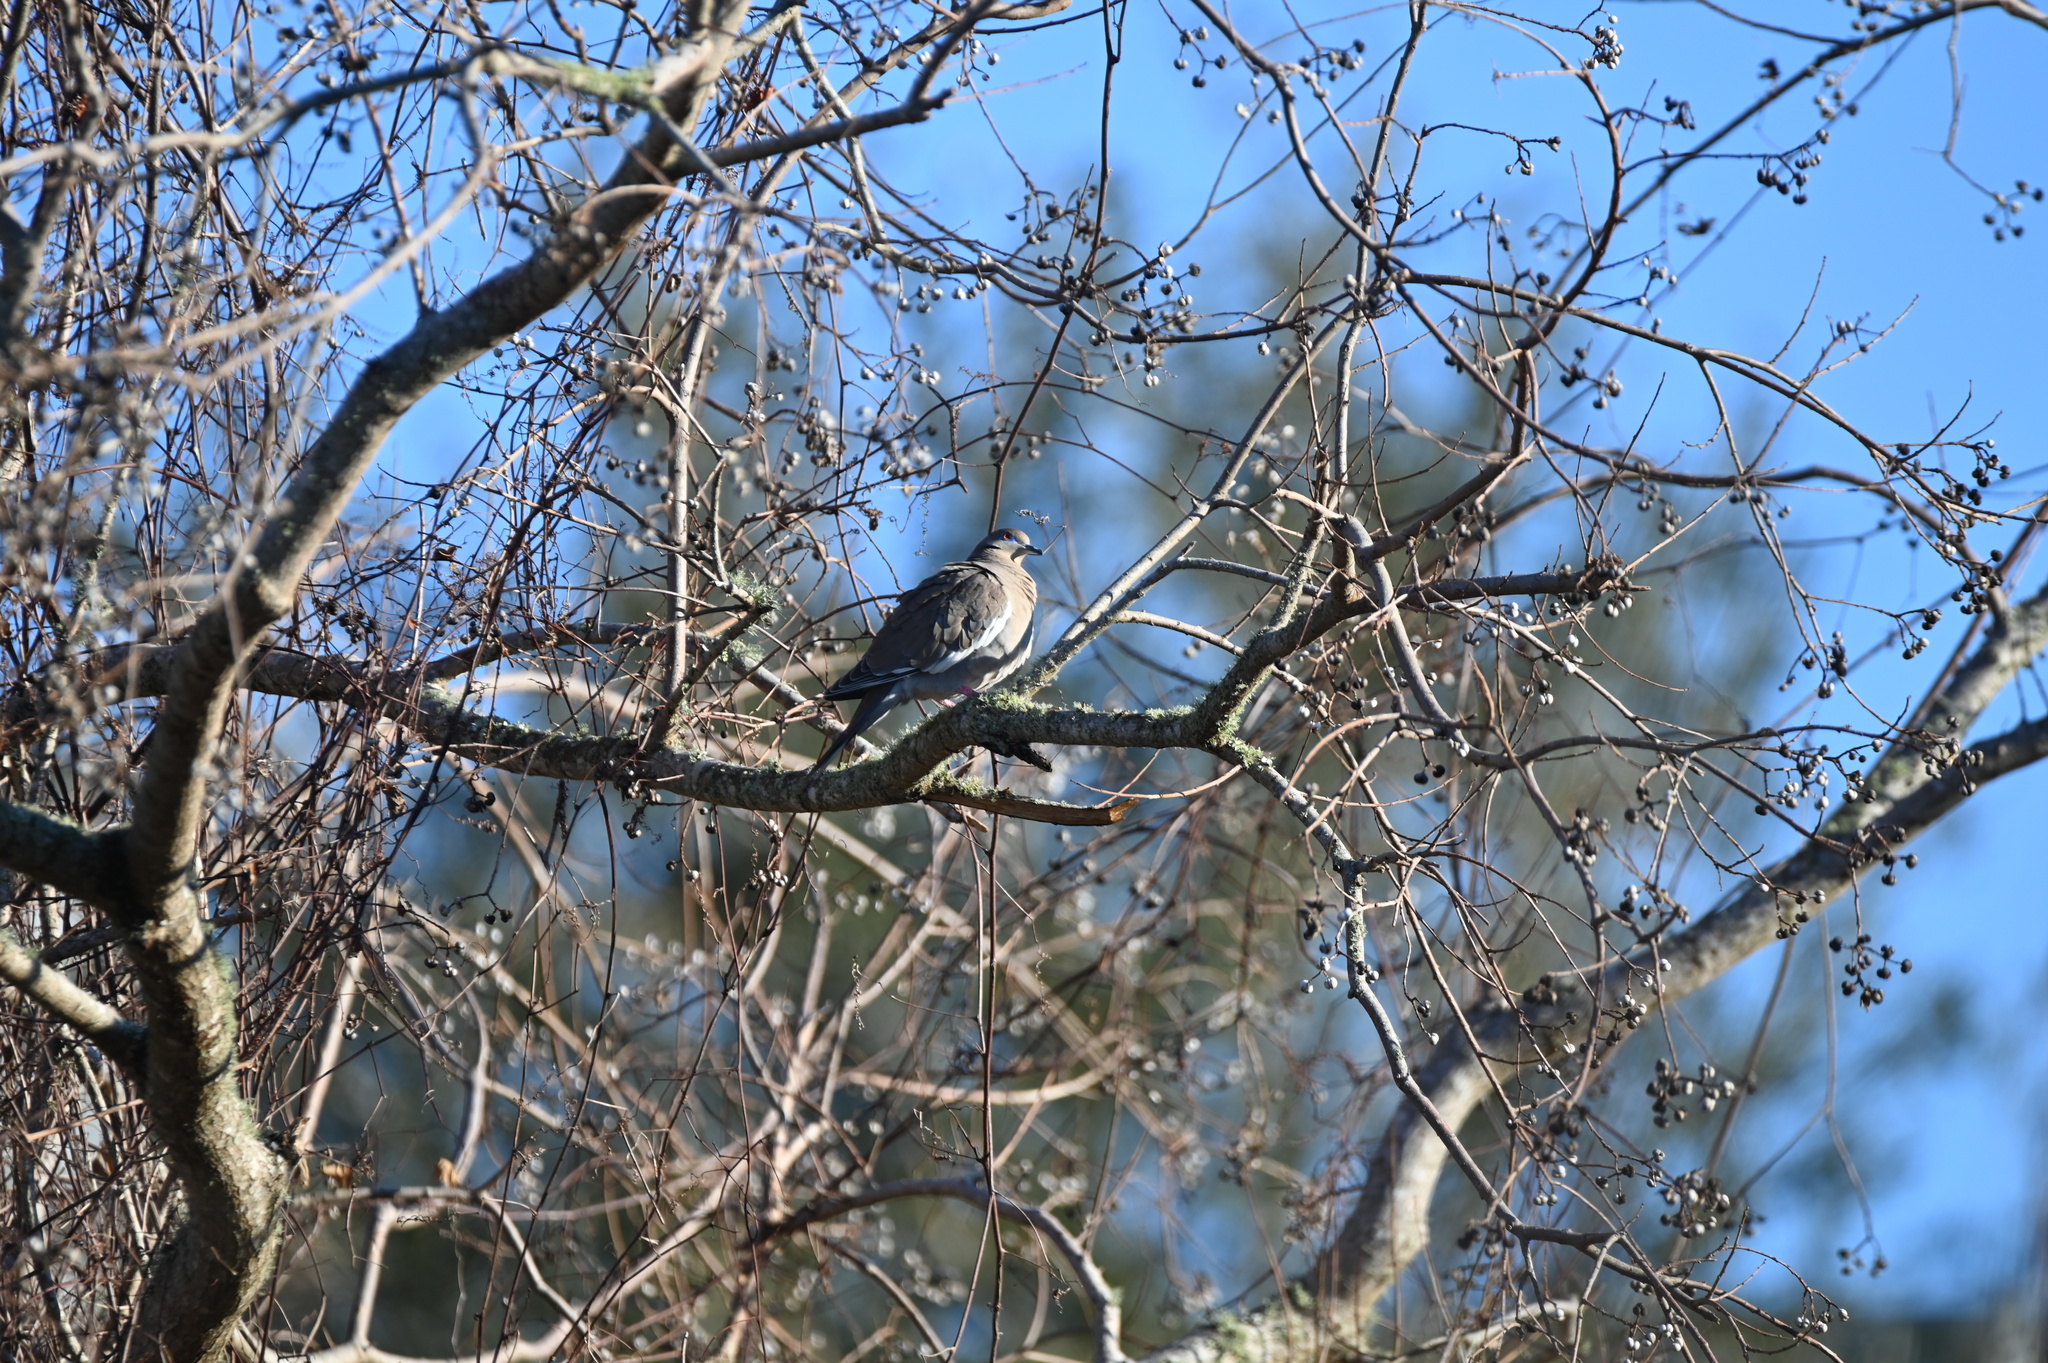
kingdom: Animalia
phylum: Chordata
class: Aves
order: Columbiformes
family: Columbidae
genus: Zenaida
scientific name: Zenaida asiatica
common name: White-winged dove
